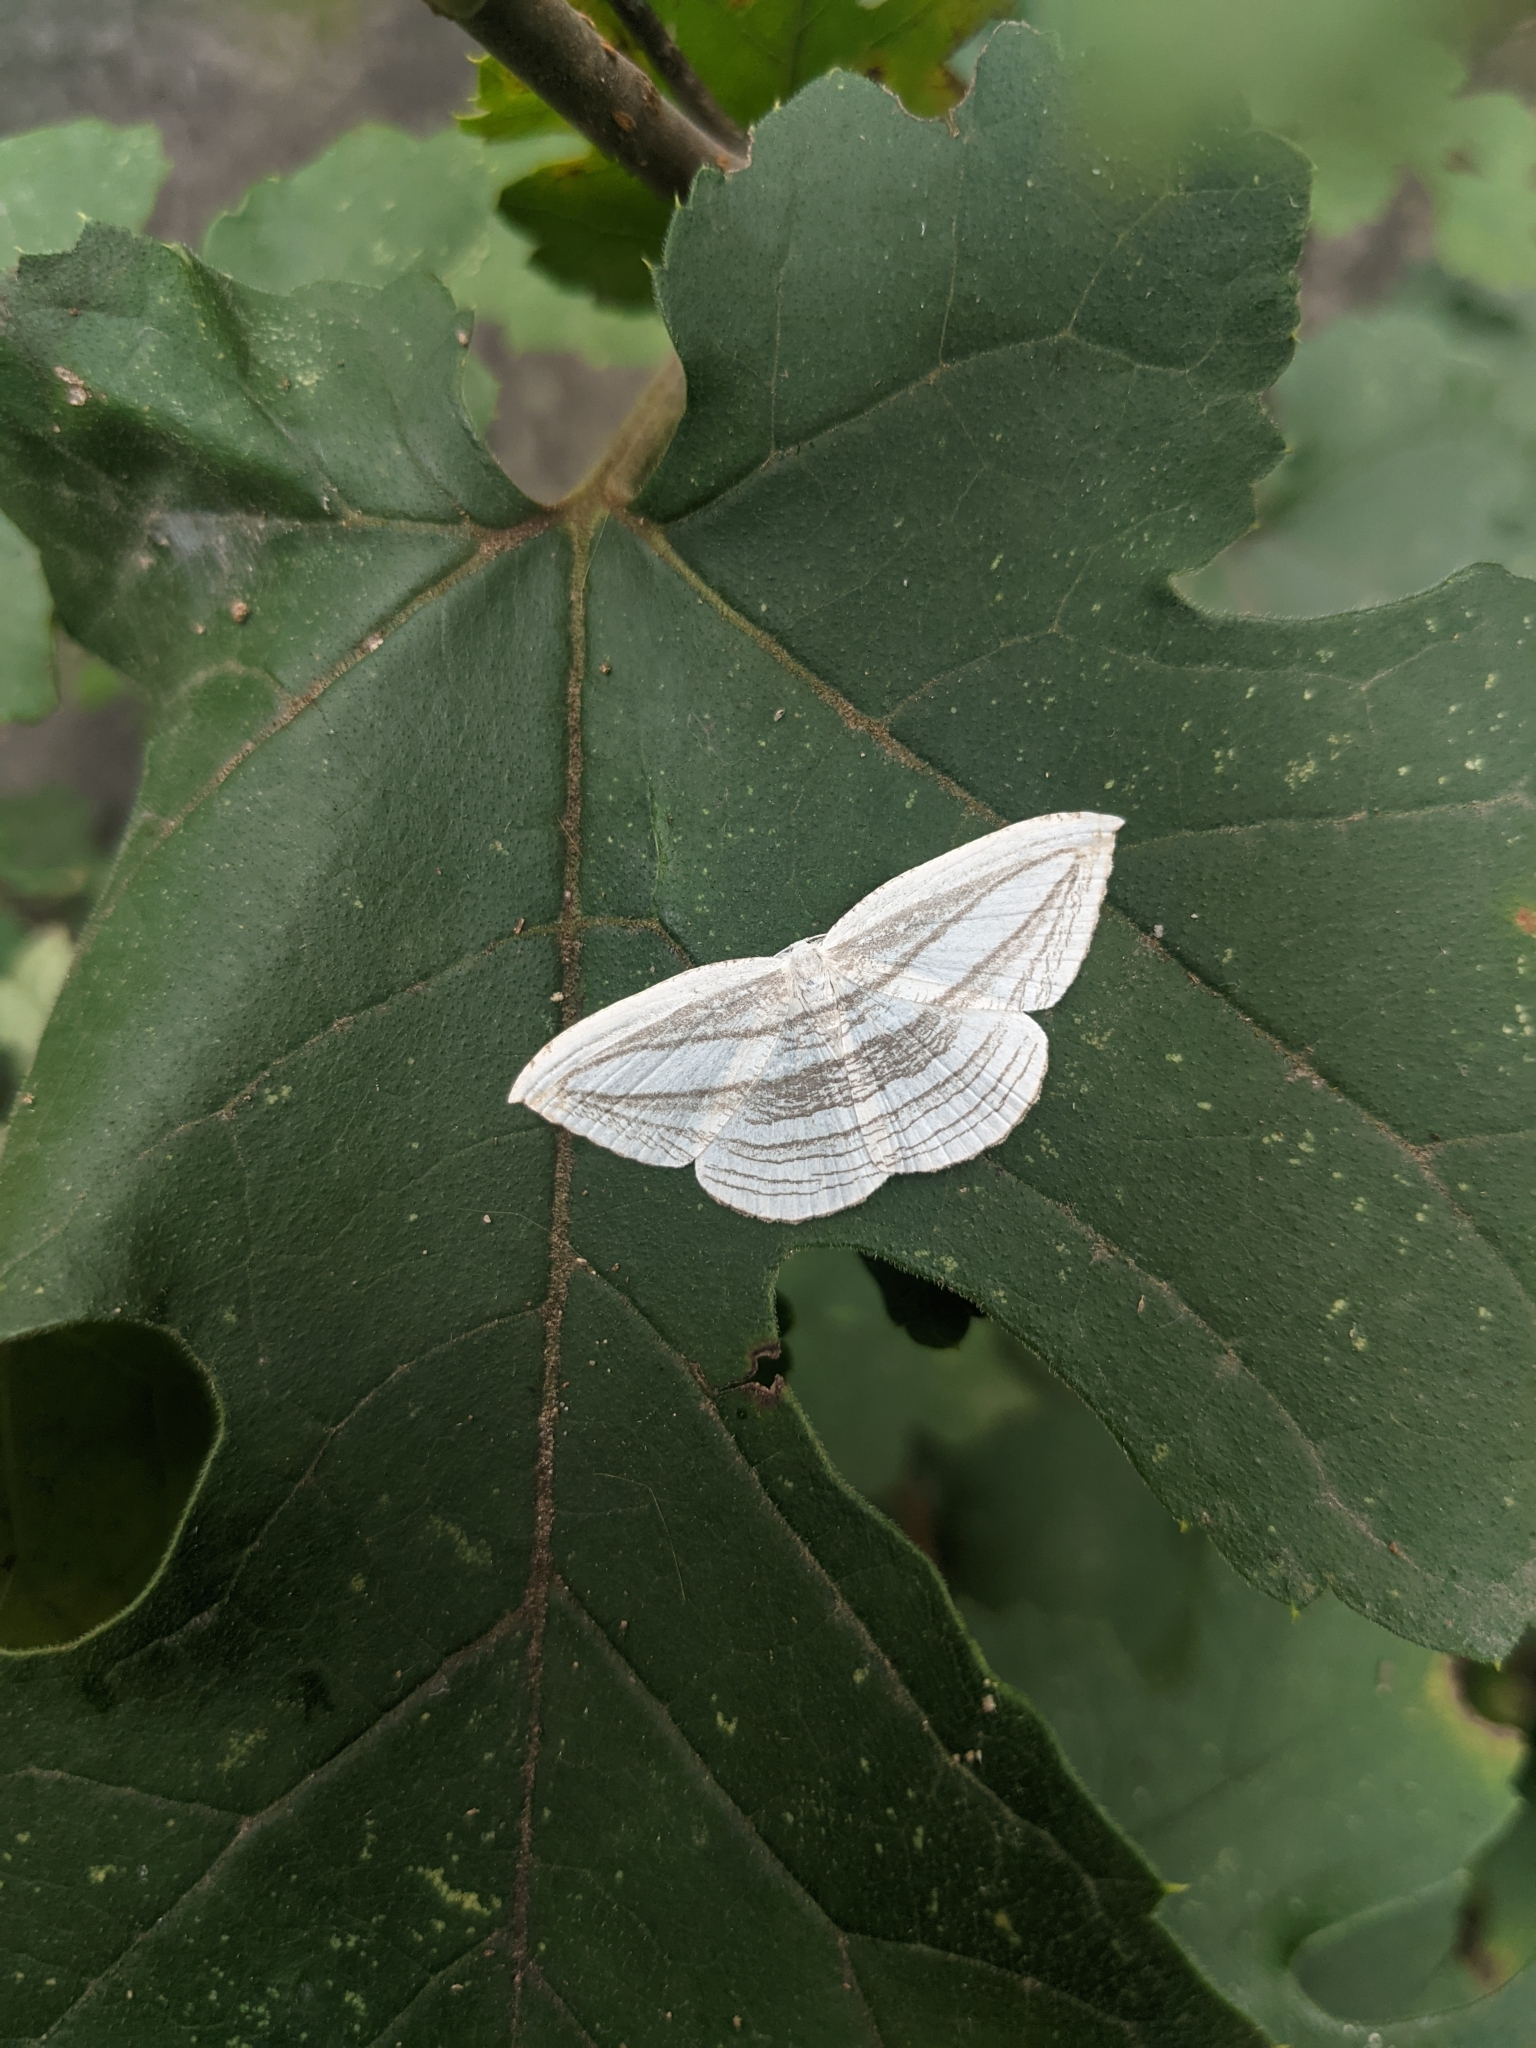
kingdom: Animalia
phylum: Arthropoda
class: Insecta
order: Lepidoptera
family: Uraniidae
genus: Acropteris
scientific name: Acropteris iphiata
